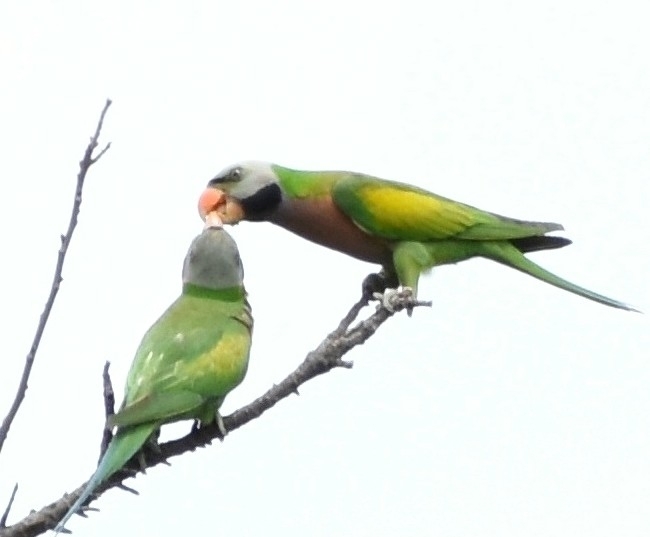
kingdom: Animalia
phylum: Chordata
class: Aves
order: Psittaciformes
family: Psittacidae
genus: Psittacula
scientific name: Psittacula alexandri
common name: Red-breasted parakeet
